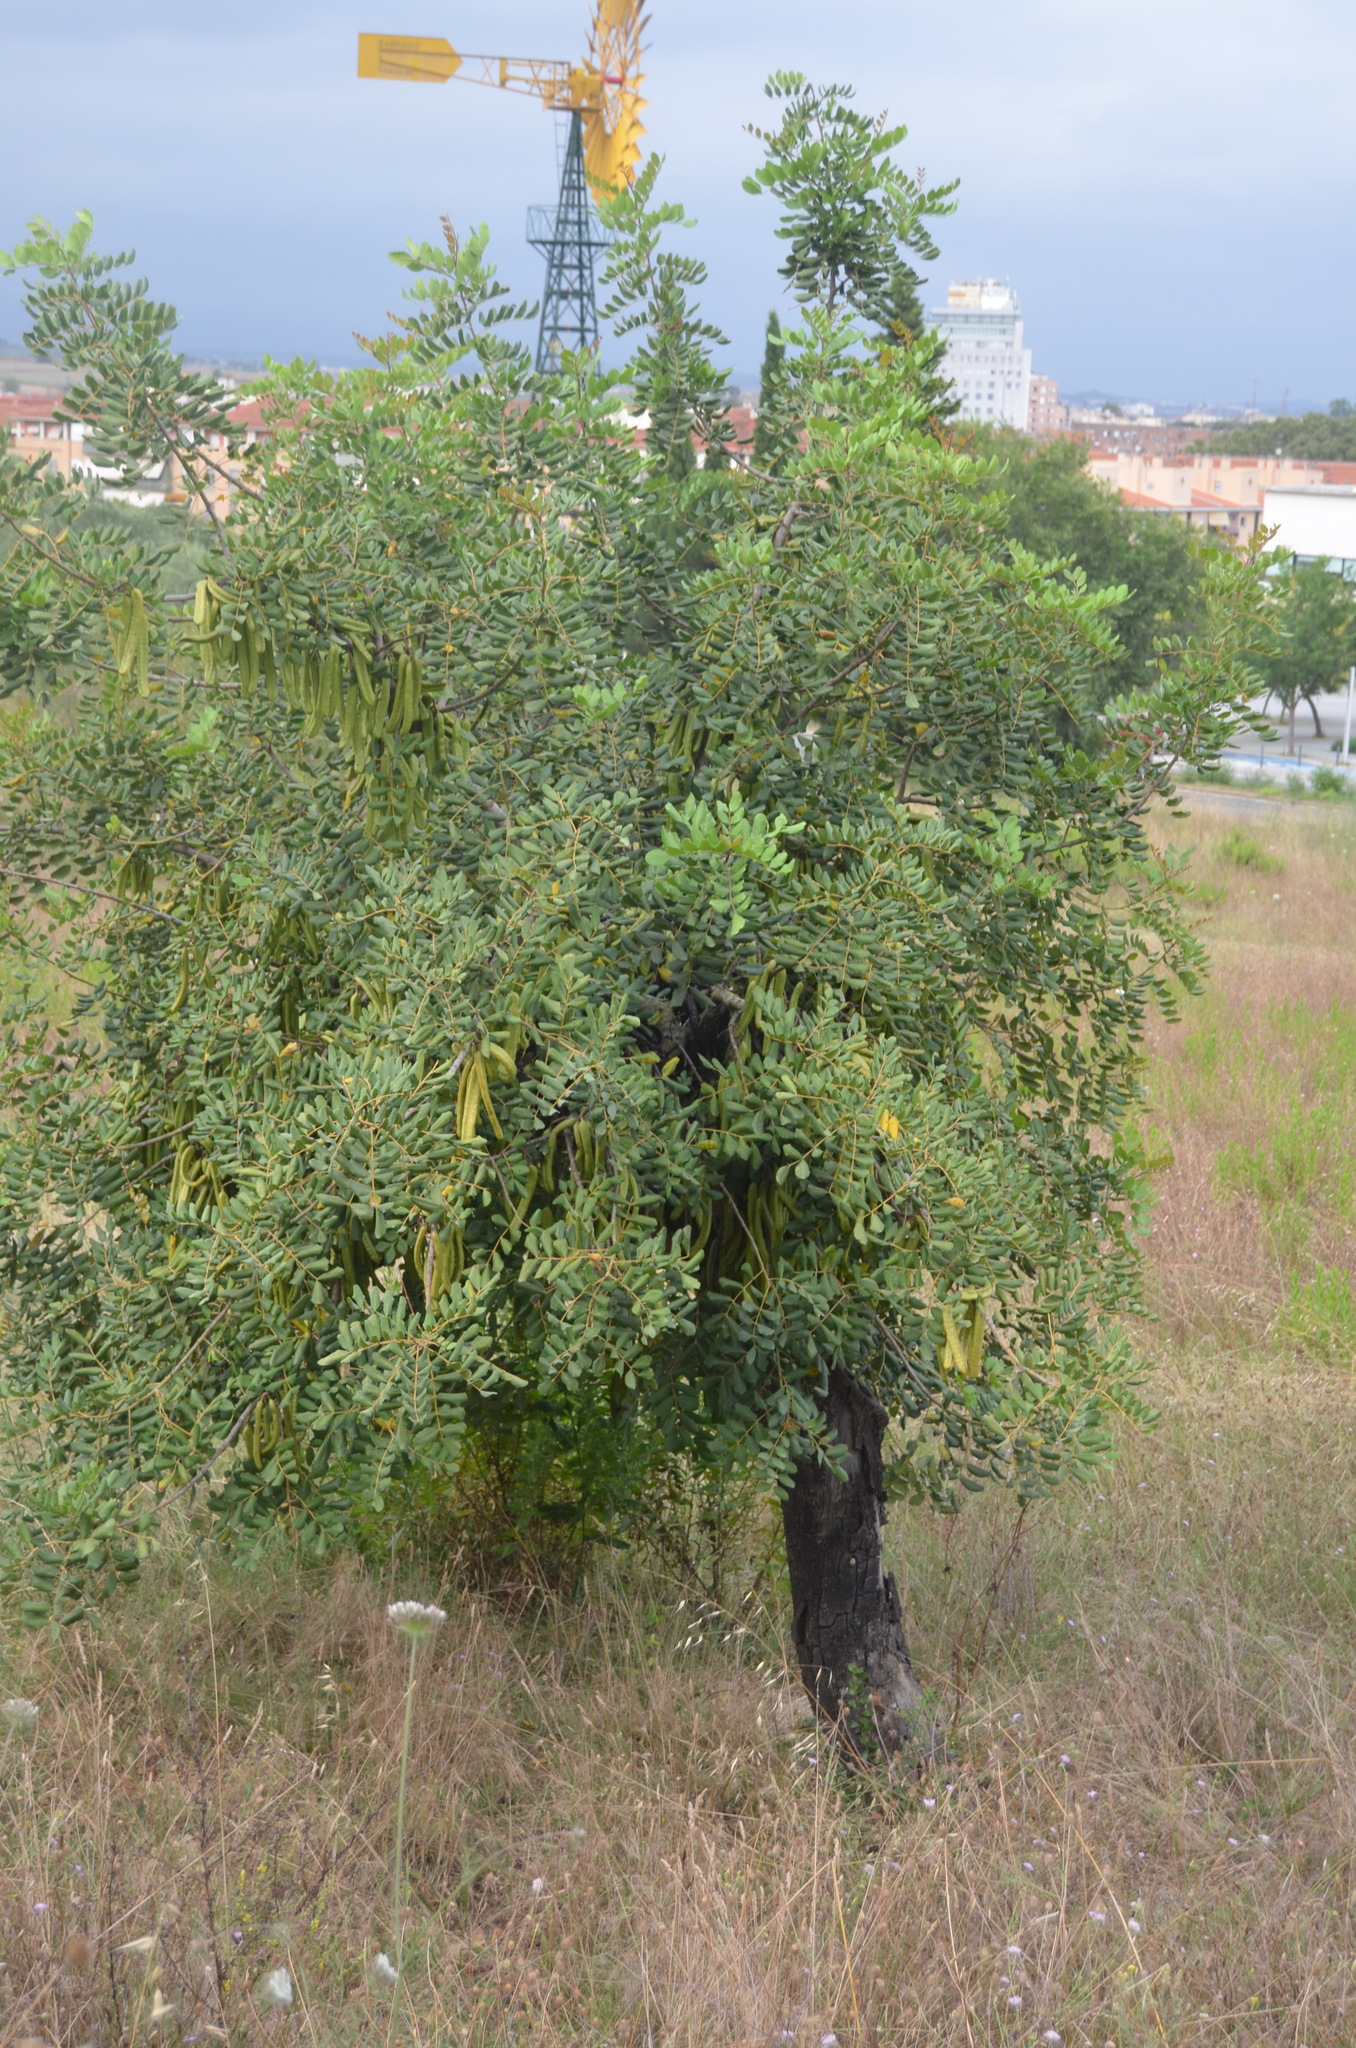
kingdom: Plantae
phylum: Tracheophyta
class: Magnoliopsida
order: Fabales
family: Fabaceae
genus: Ceratonia
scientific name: Ceratonia siliqua
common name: Carob
